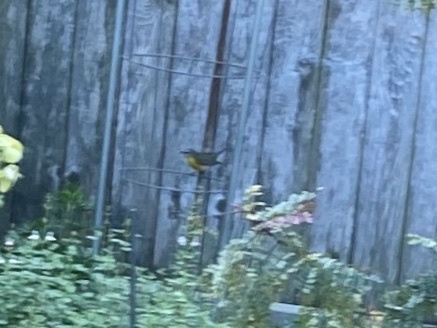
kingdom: Animalia
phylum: Chordata
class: Aves
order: Passeriformes
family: Parulidae
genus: Icteria
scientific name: Icteria virens
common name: Yellow-breasted chat
